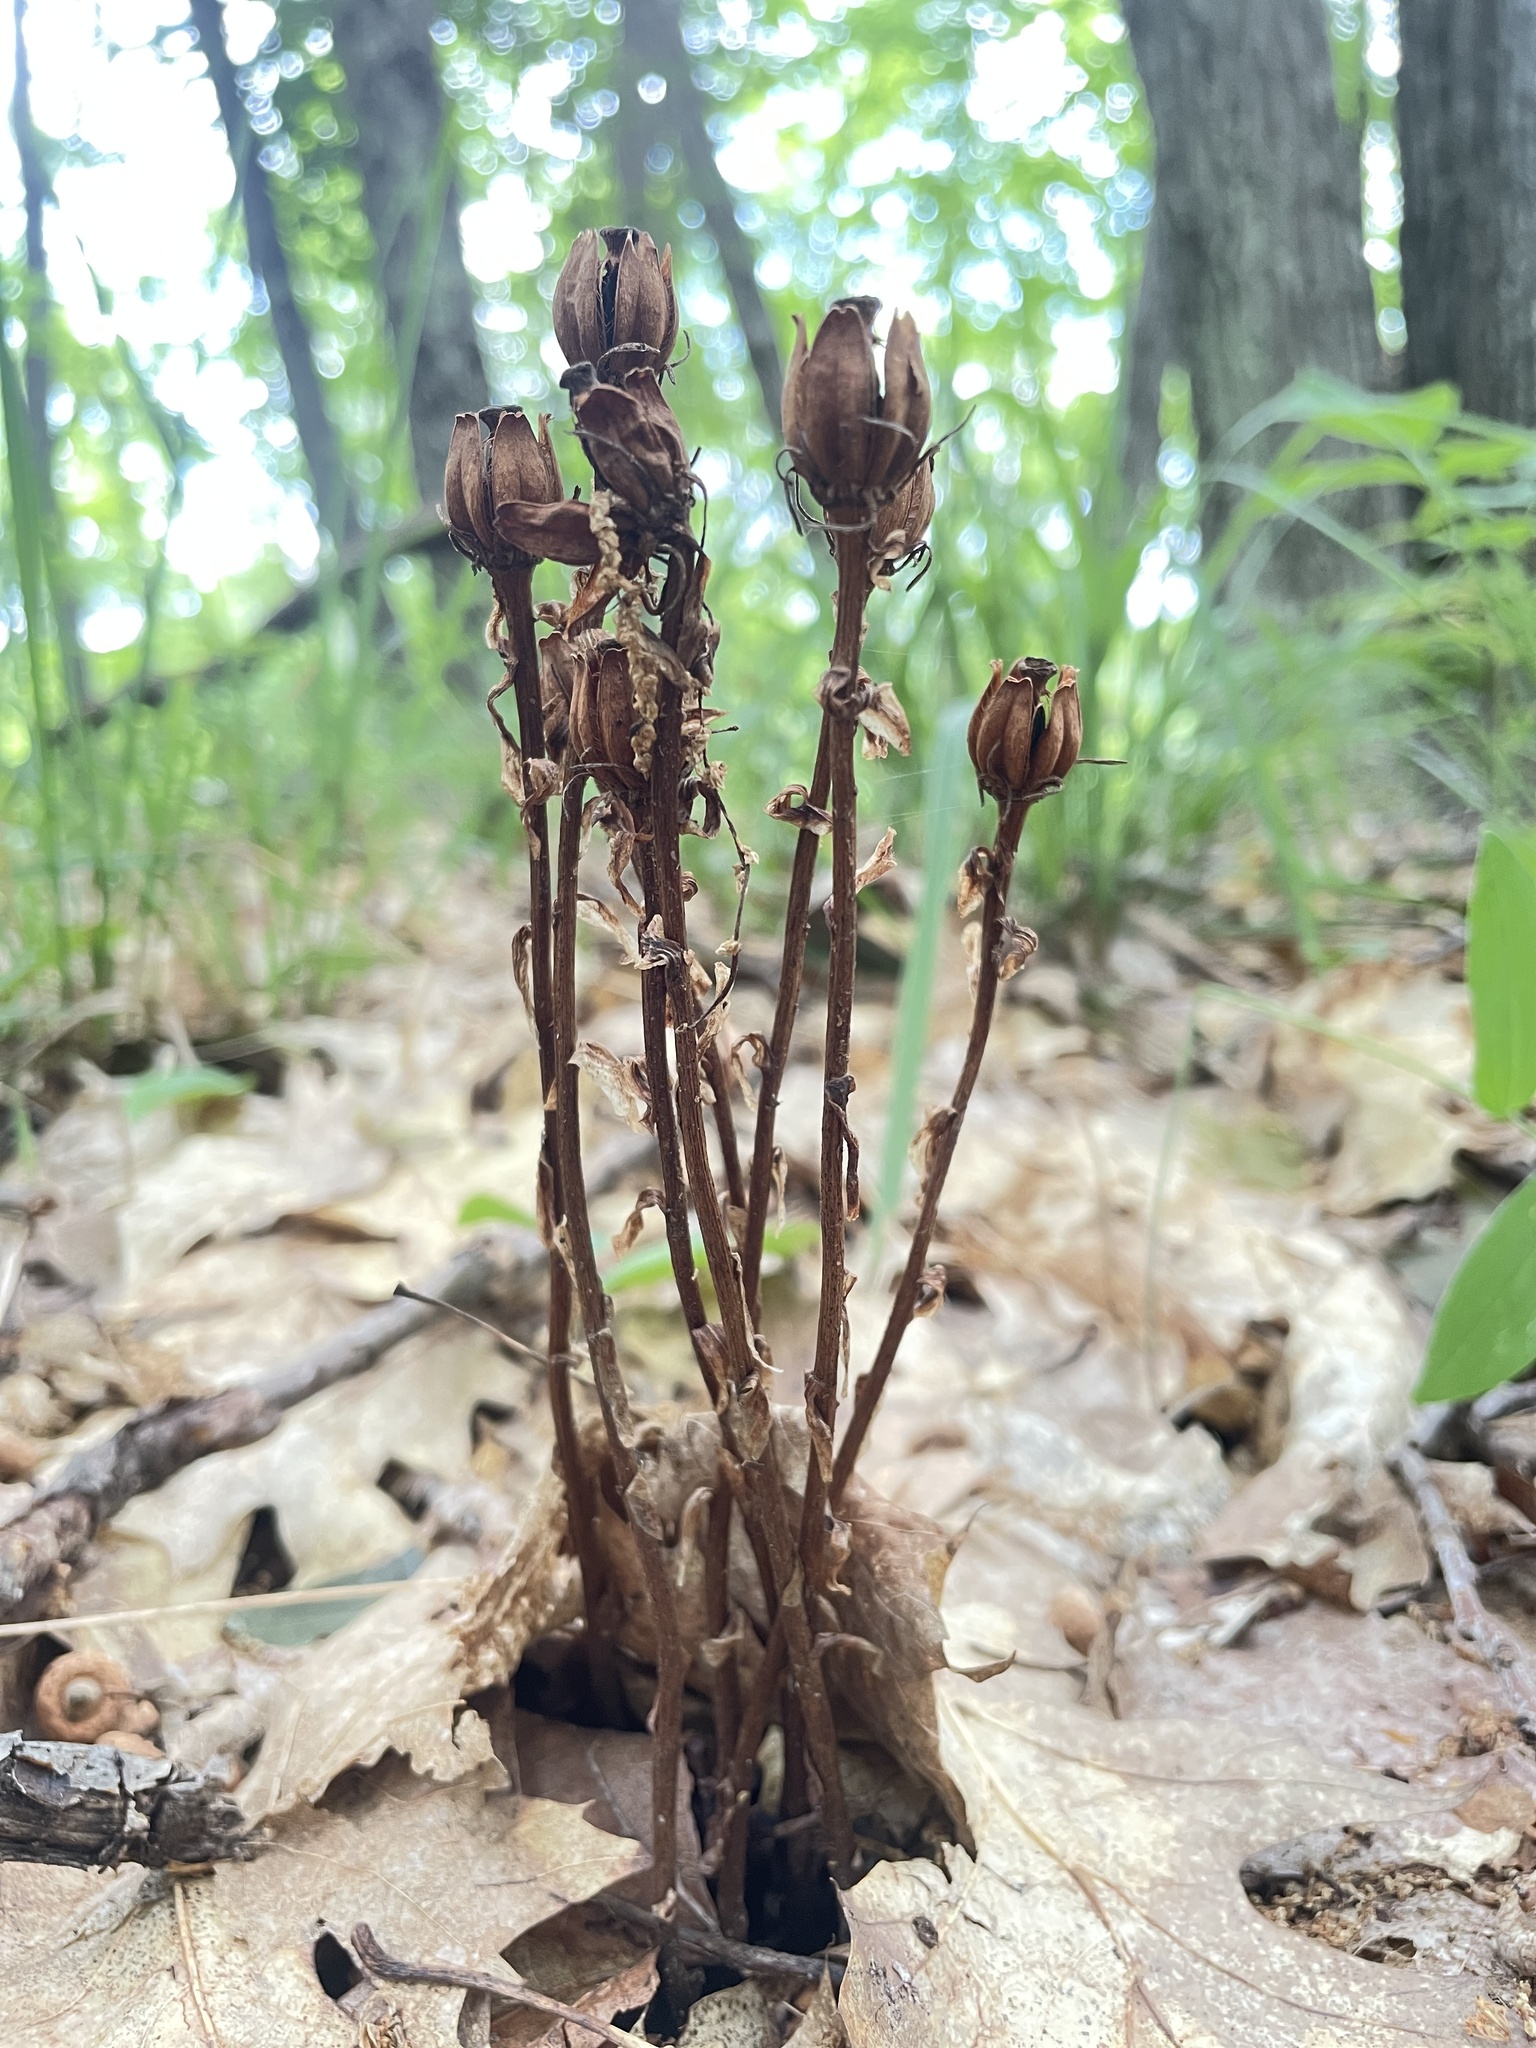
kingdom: Plantae
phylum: Tracheophyta
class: Magnoliopsida
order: Ericales
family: Ericaceae
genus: Monotropa
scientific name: Monotropa uniflora
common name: Convulsion root
